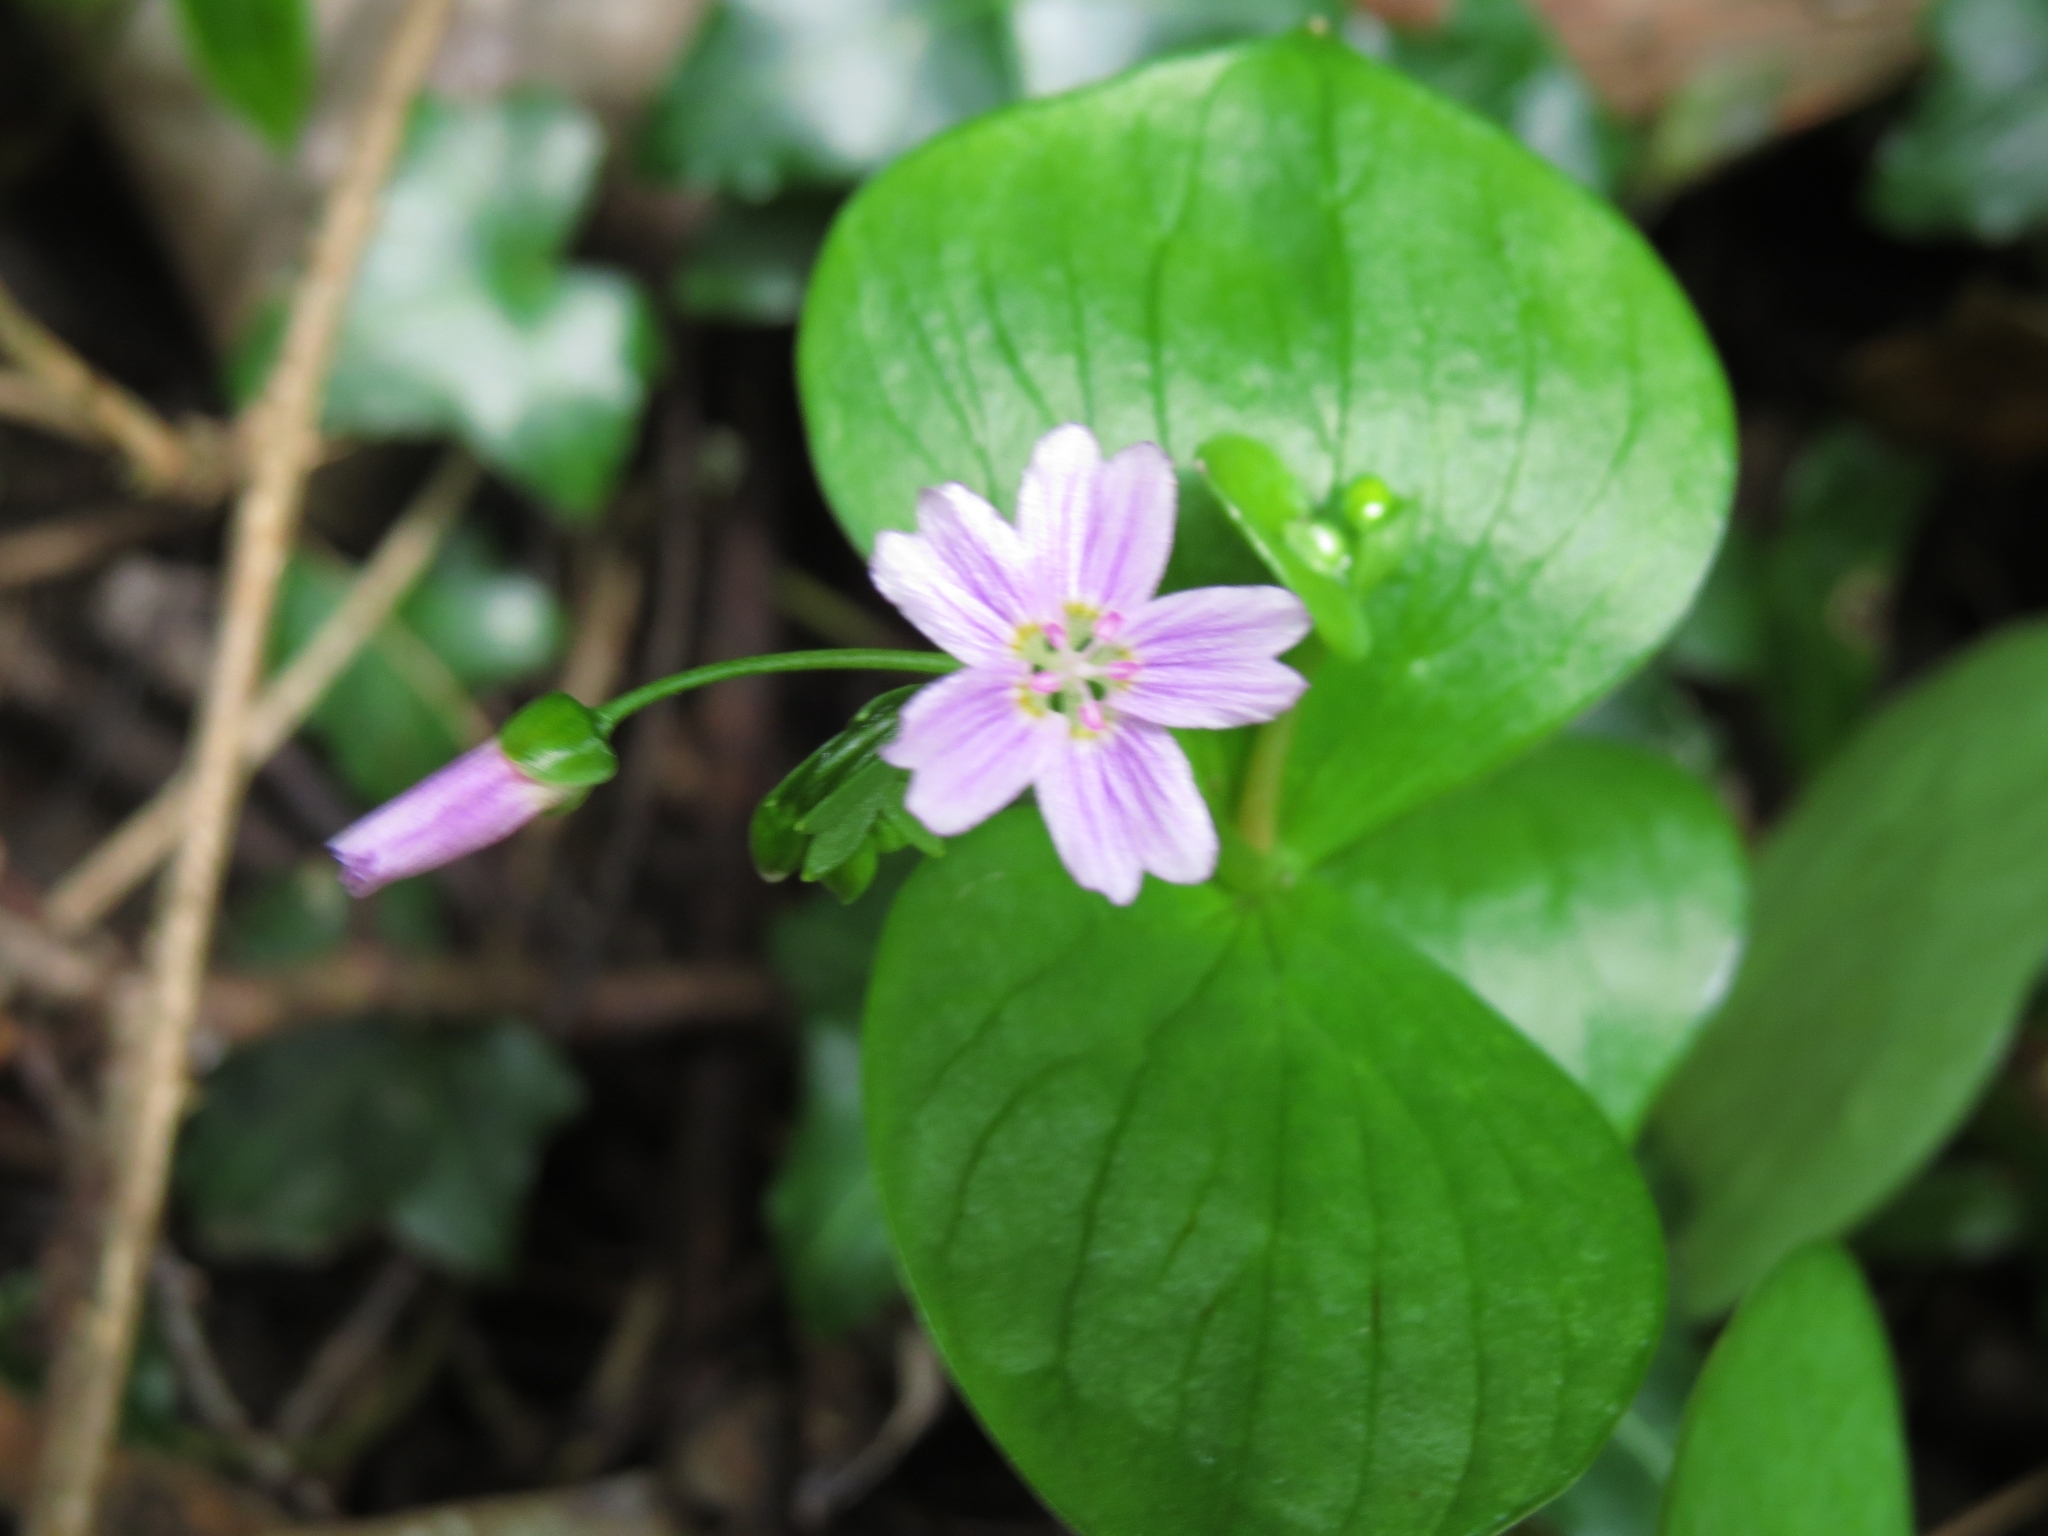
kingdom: Plantae
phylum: Tracheophyta
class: Magnoliopsida
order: Caryophyllales
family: Montiaceae
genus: Claytonia
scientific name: Claytonia sibirica
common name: Pink purslane
